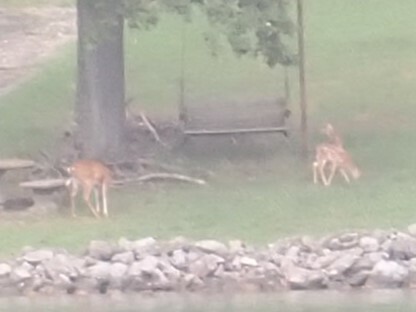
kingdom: Animalia
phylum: Chordata
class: Mammalia
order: Artiodactyla
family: Cervidae
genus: Odocoileus
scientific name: Odocoileus virginianus
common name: White-tailed deer
